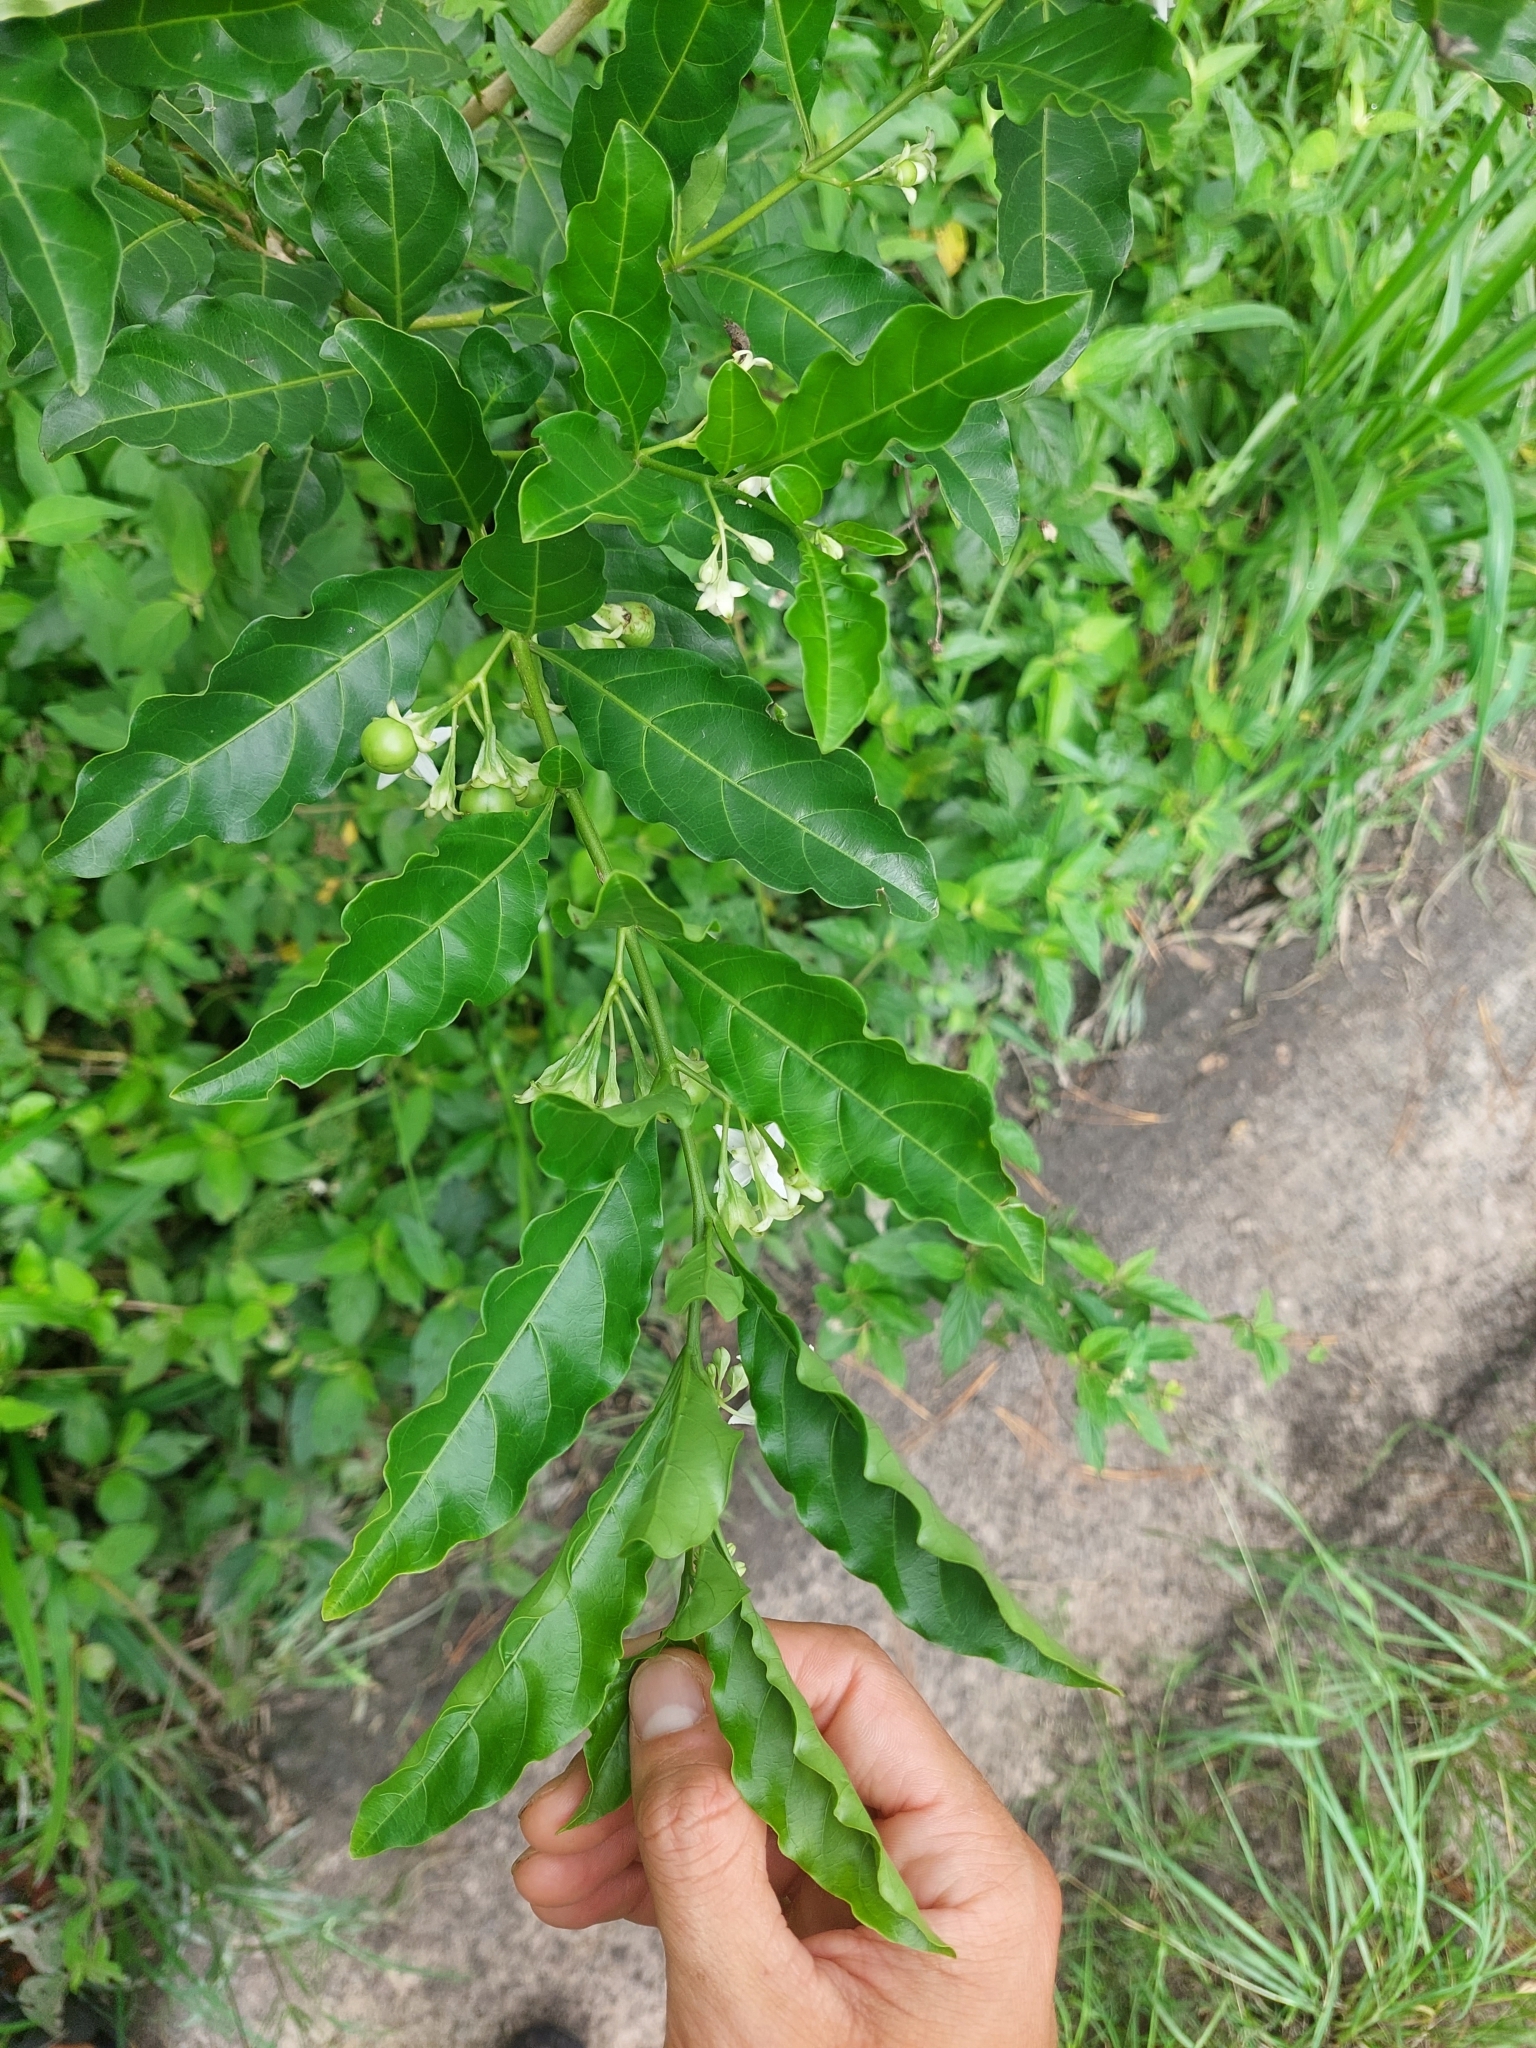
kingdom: Plantae
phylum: Tracheophyta
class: Magnoliopsida
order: Solanales
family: Solanaceae
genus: Solanum
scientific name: Solanum caavurana
